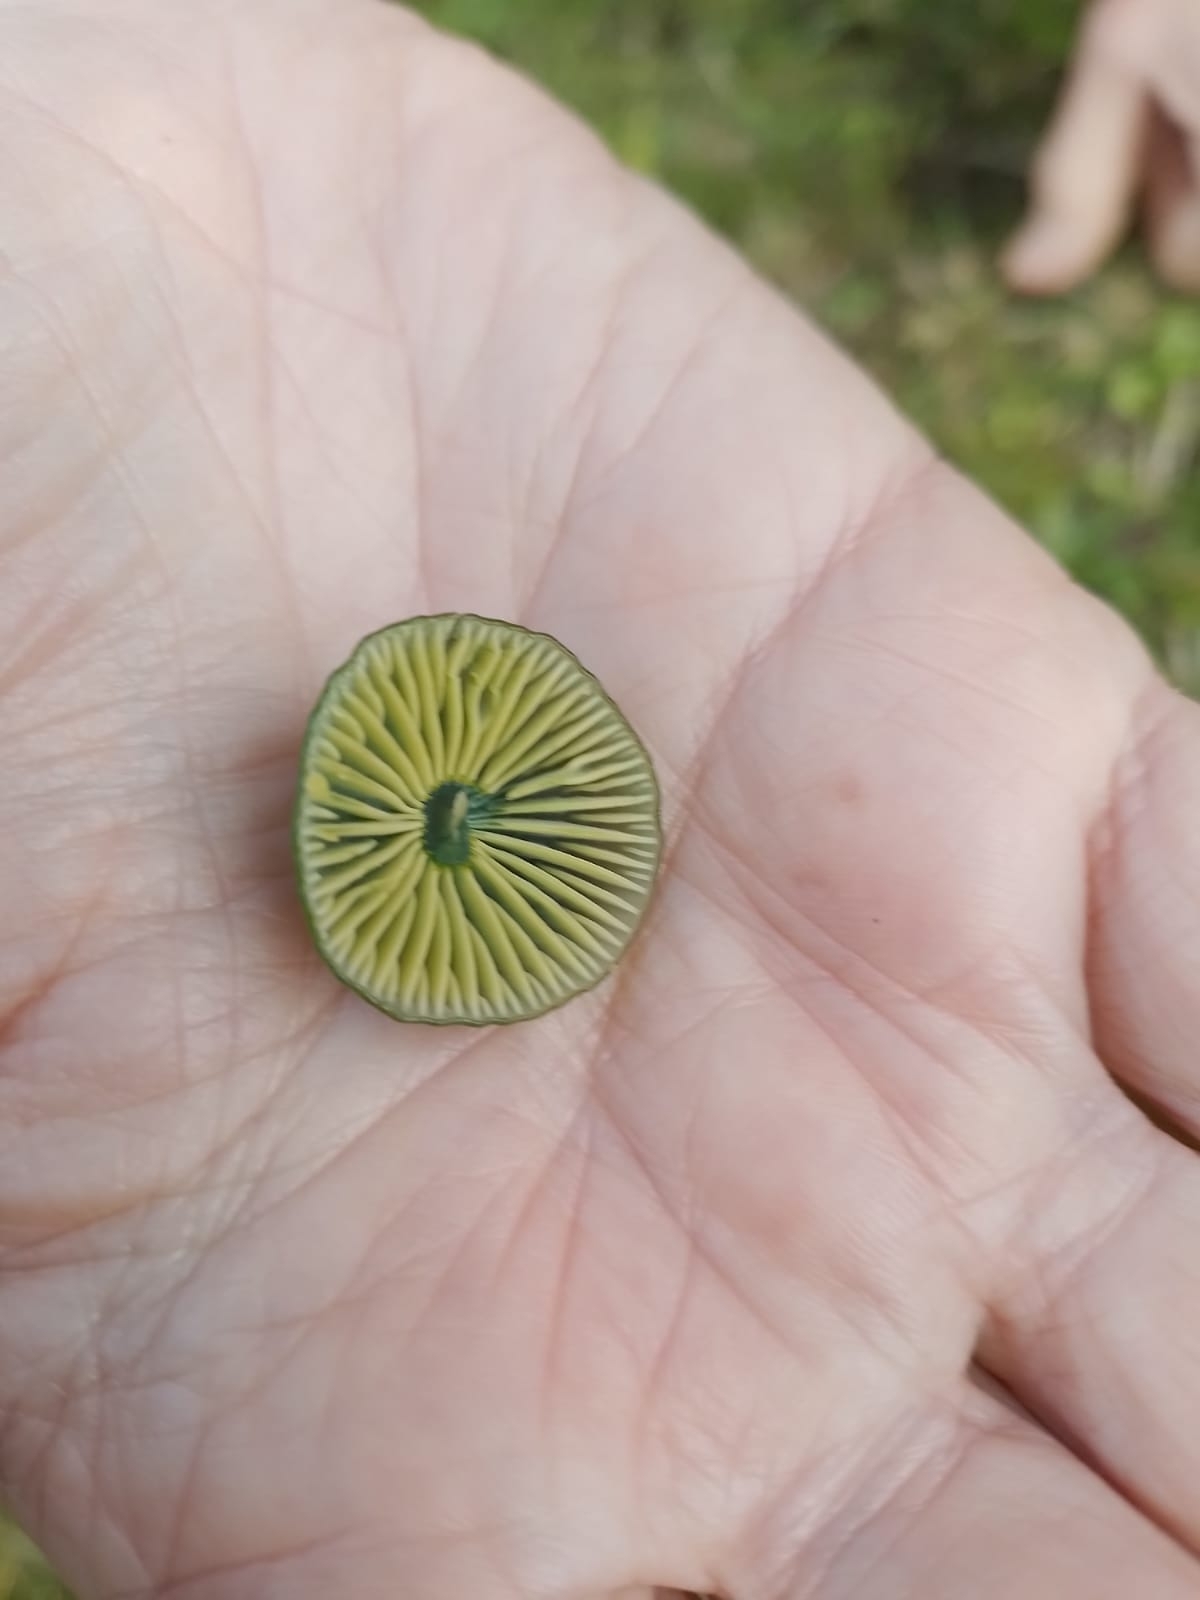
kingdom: Fungi
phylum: Basidiomycota
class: Agaricomycetes
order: Agaricales
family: Hygrophoraceae
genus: Gliophorus
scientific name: Gliophorus psittacinus
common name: Parrot wax-cap
